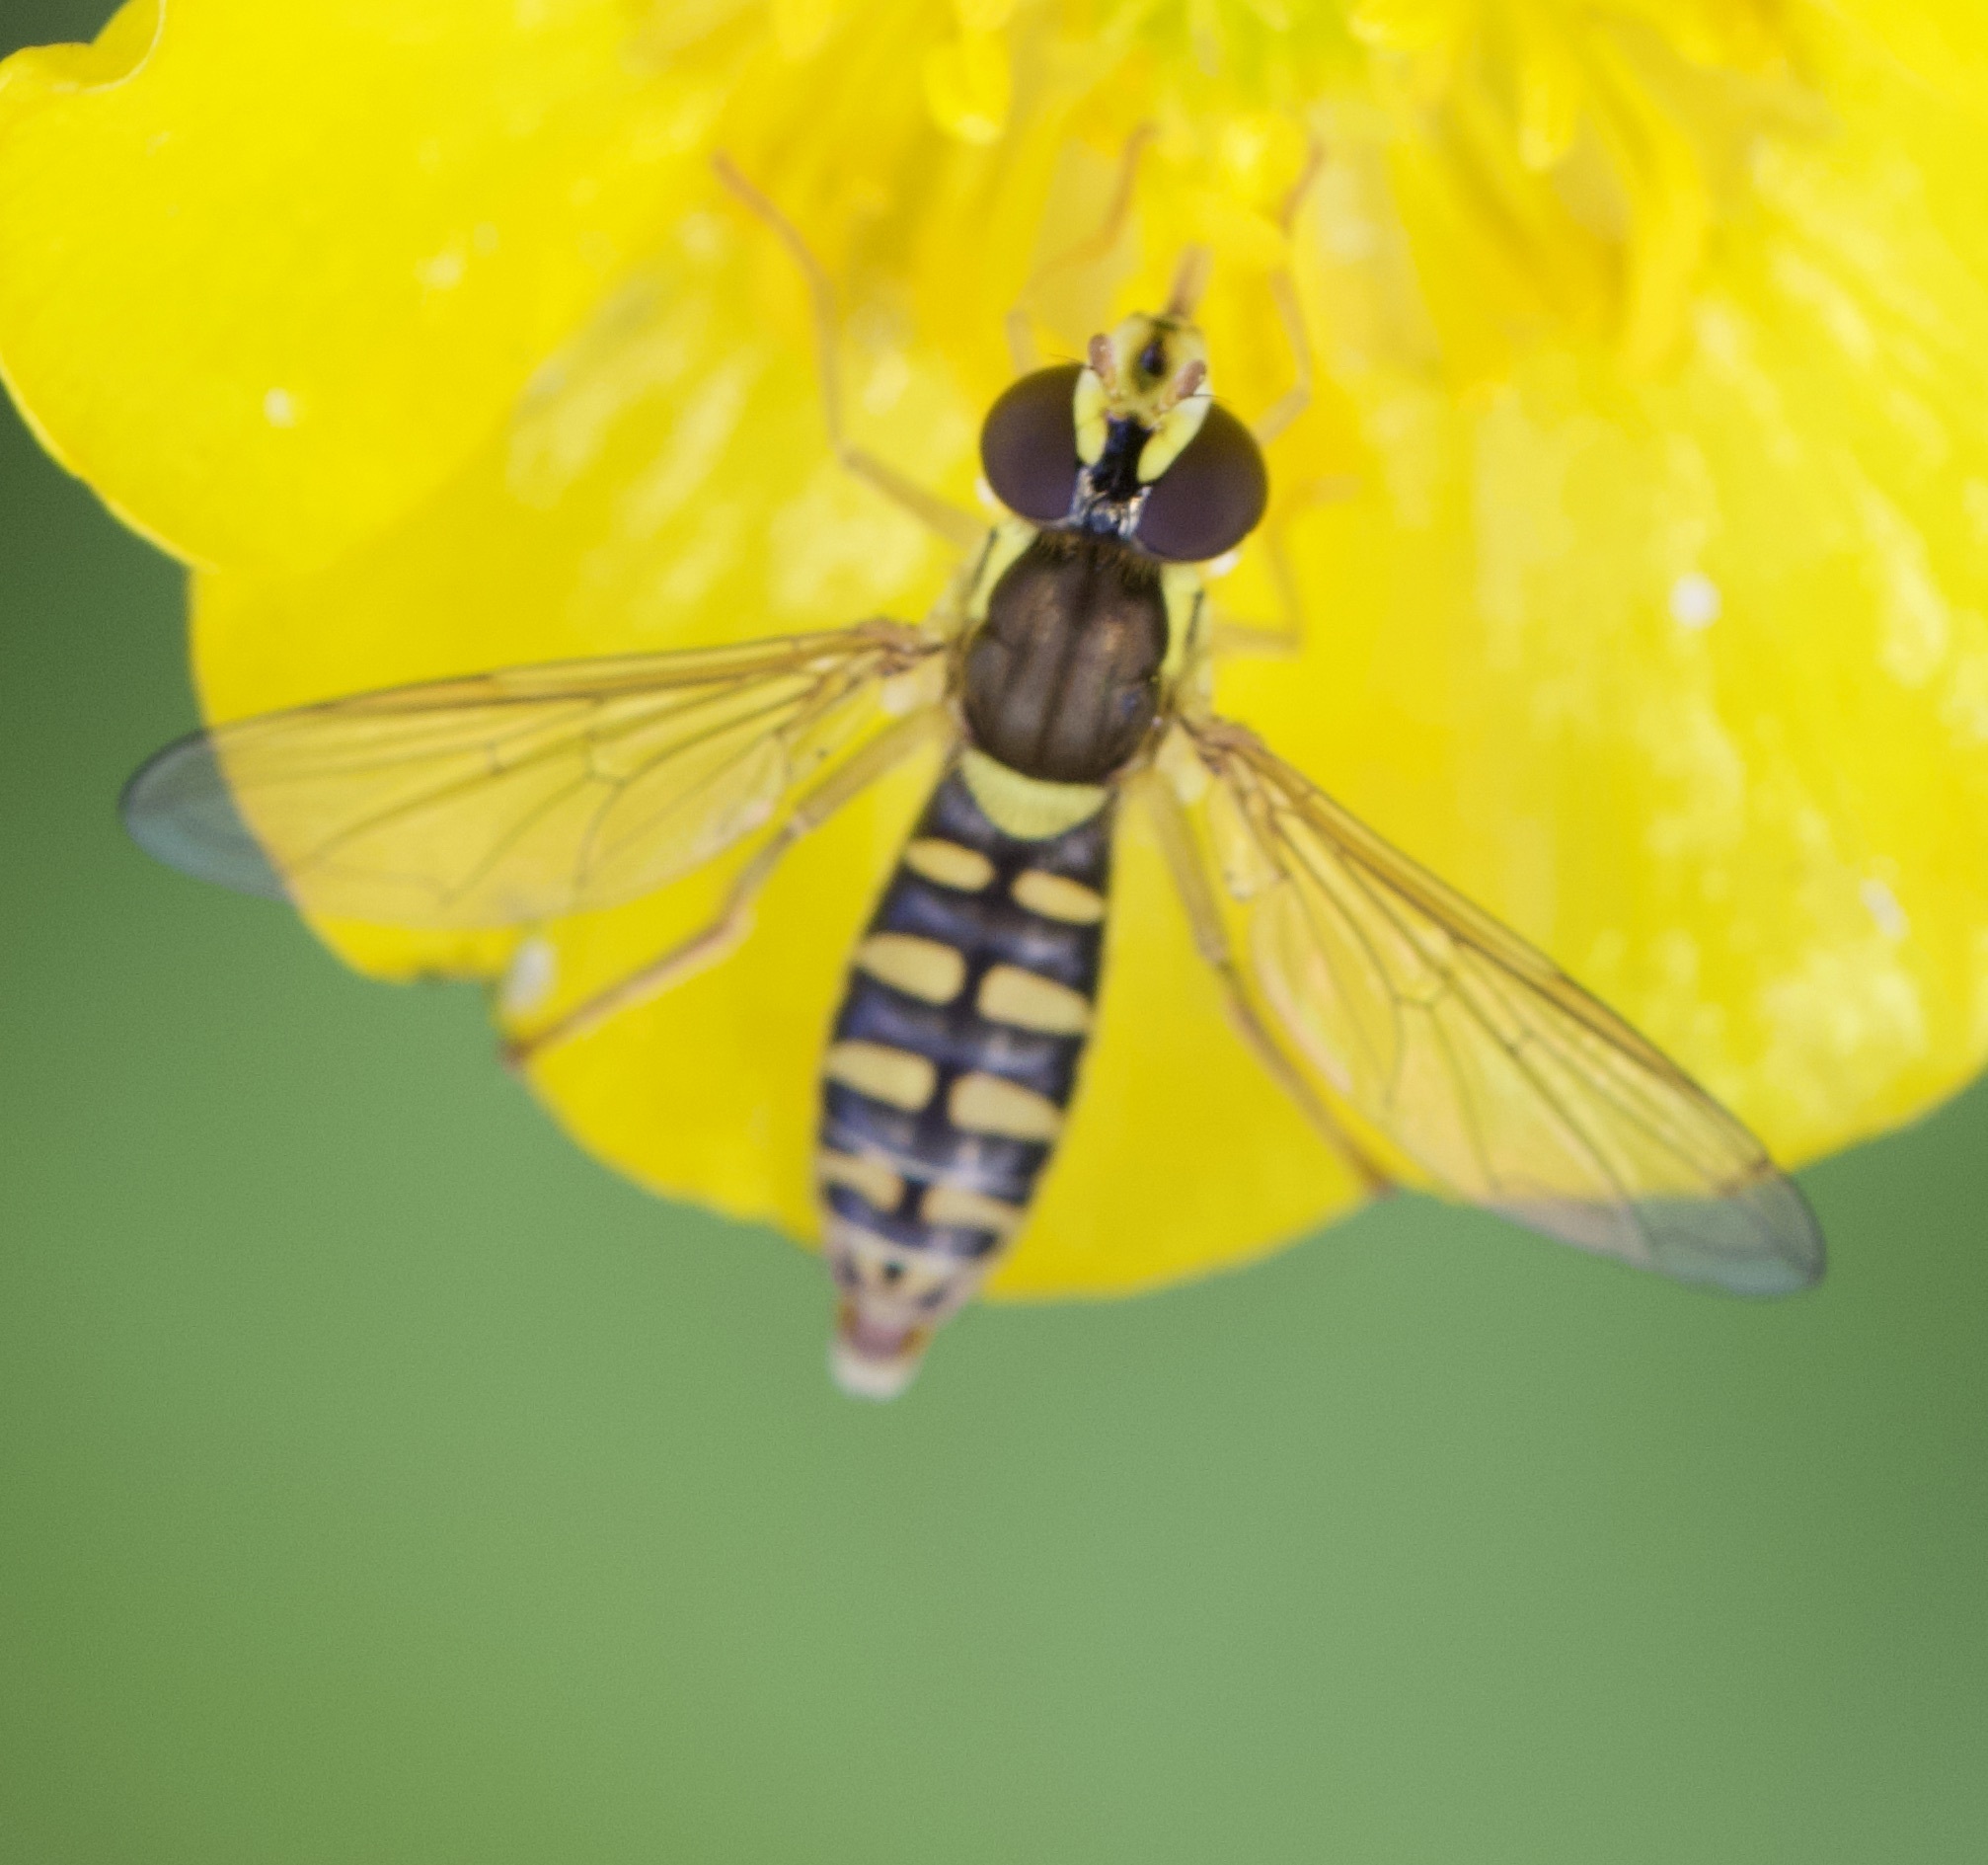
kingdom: Animalia
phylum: Arthropoda
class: Insecta
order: Diptera
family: Syrphidae
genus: Sphaerophoria
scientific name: Sphaerophoria
